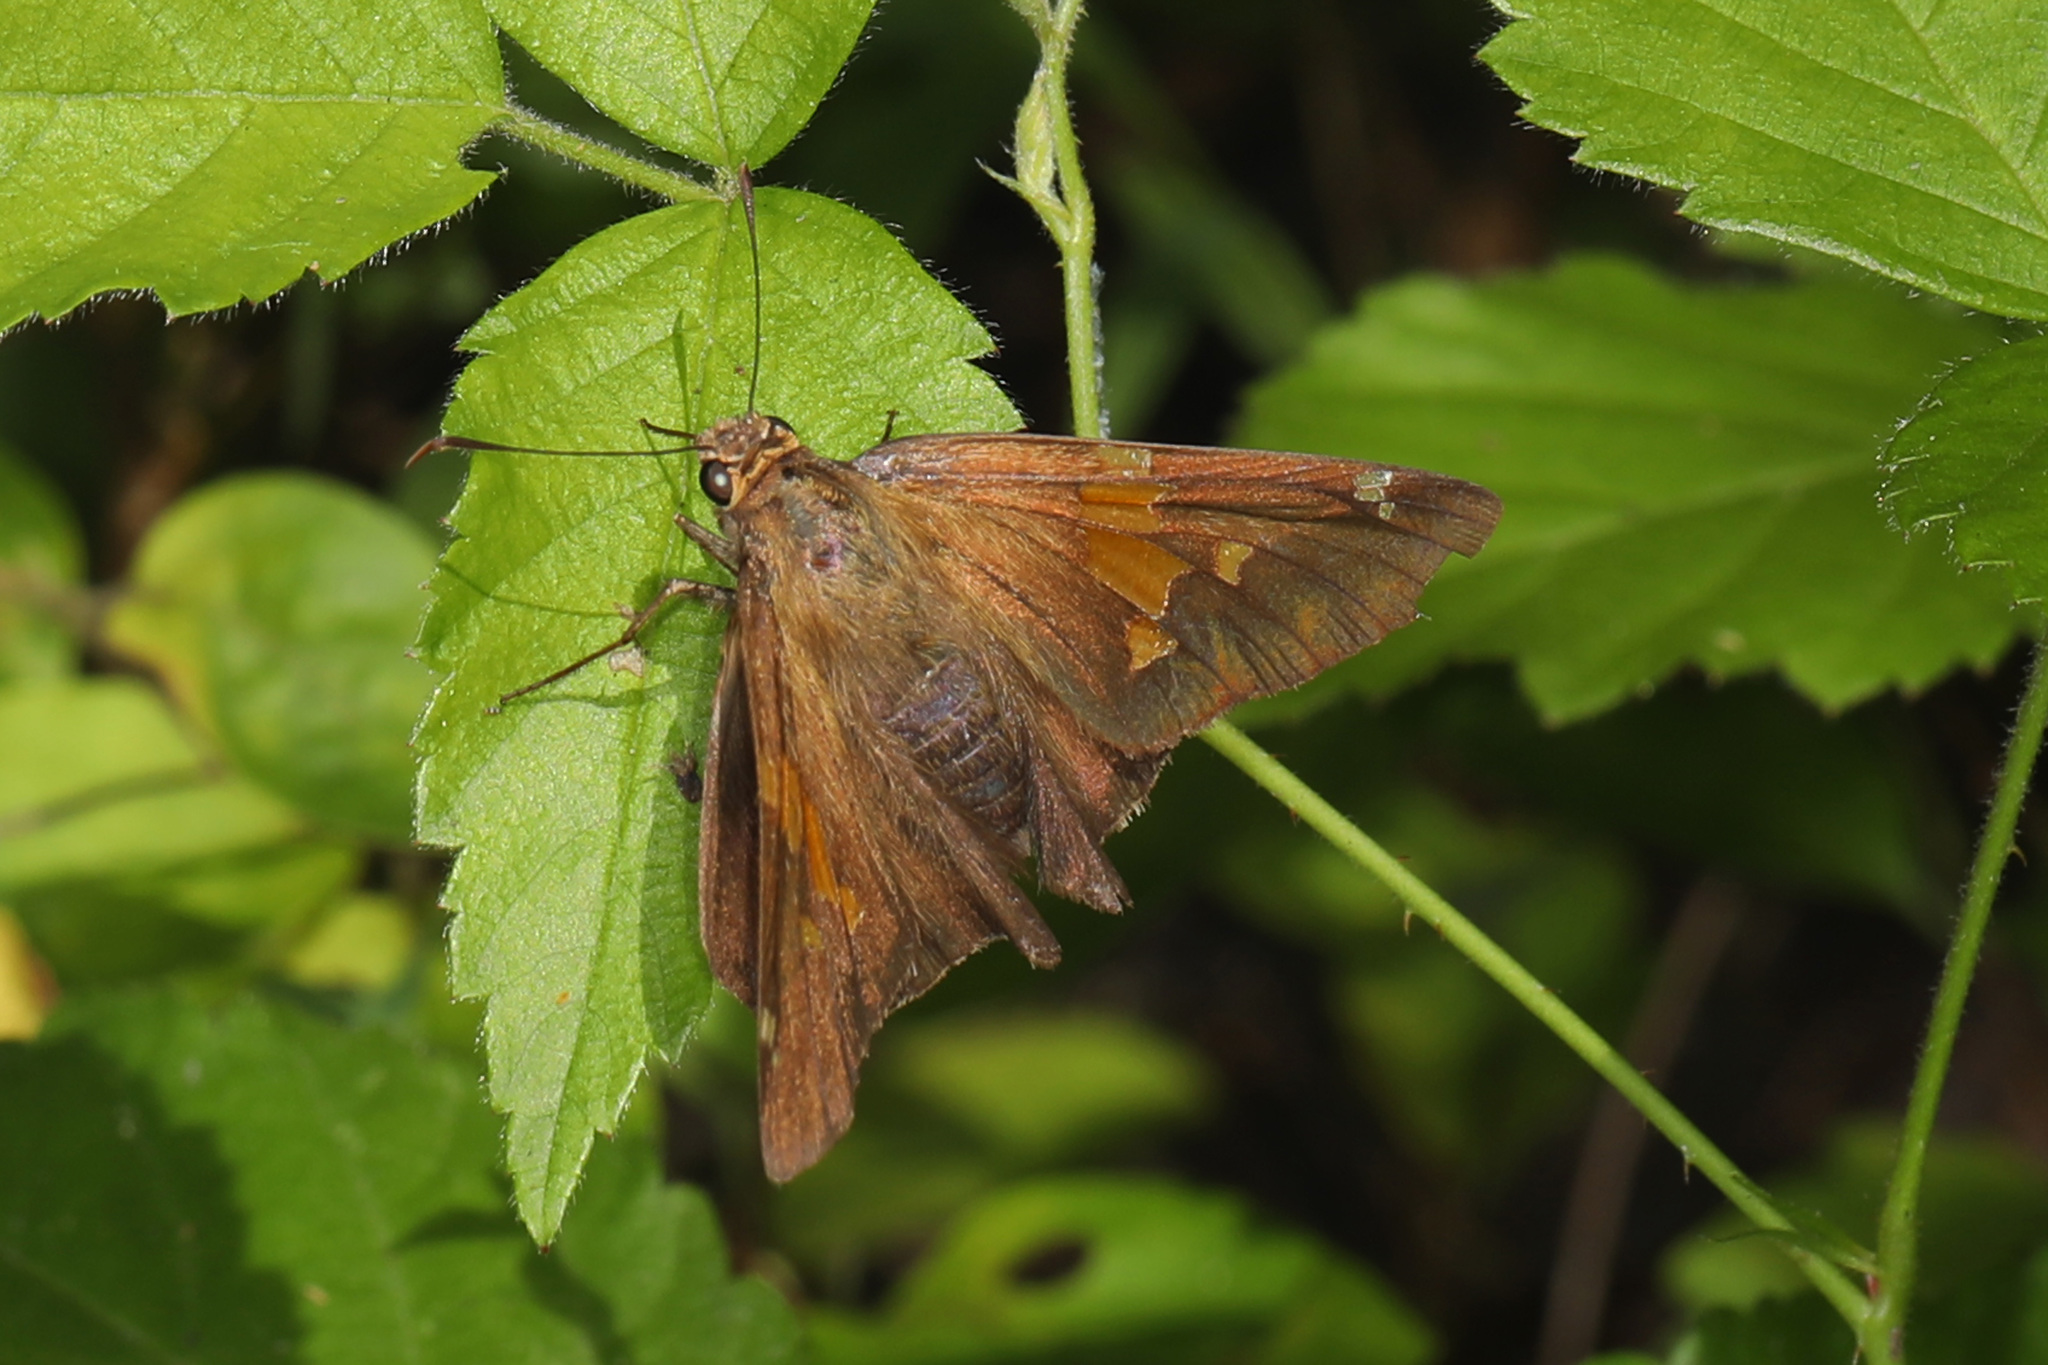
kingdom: Animalia
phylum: Arthropoda
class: Insecta
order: Lepidoptera
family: Hesperiidae
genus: Epargyreus
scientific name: Epargyreus clarus
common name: Silver-spotted skipper
